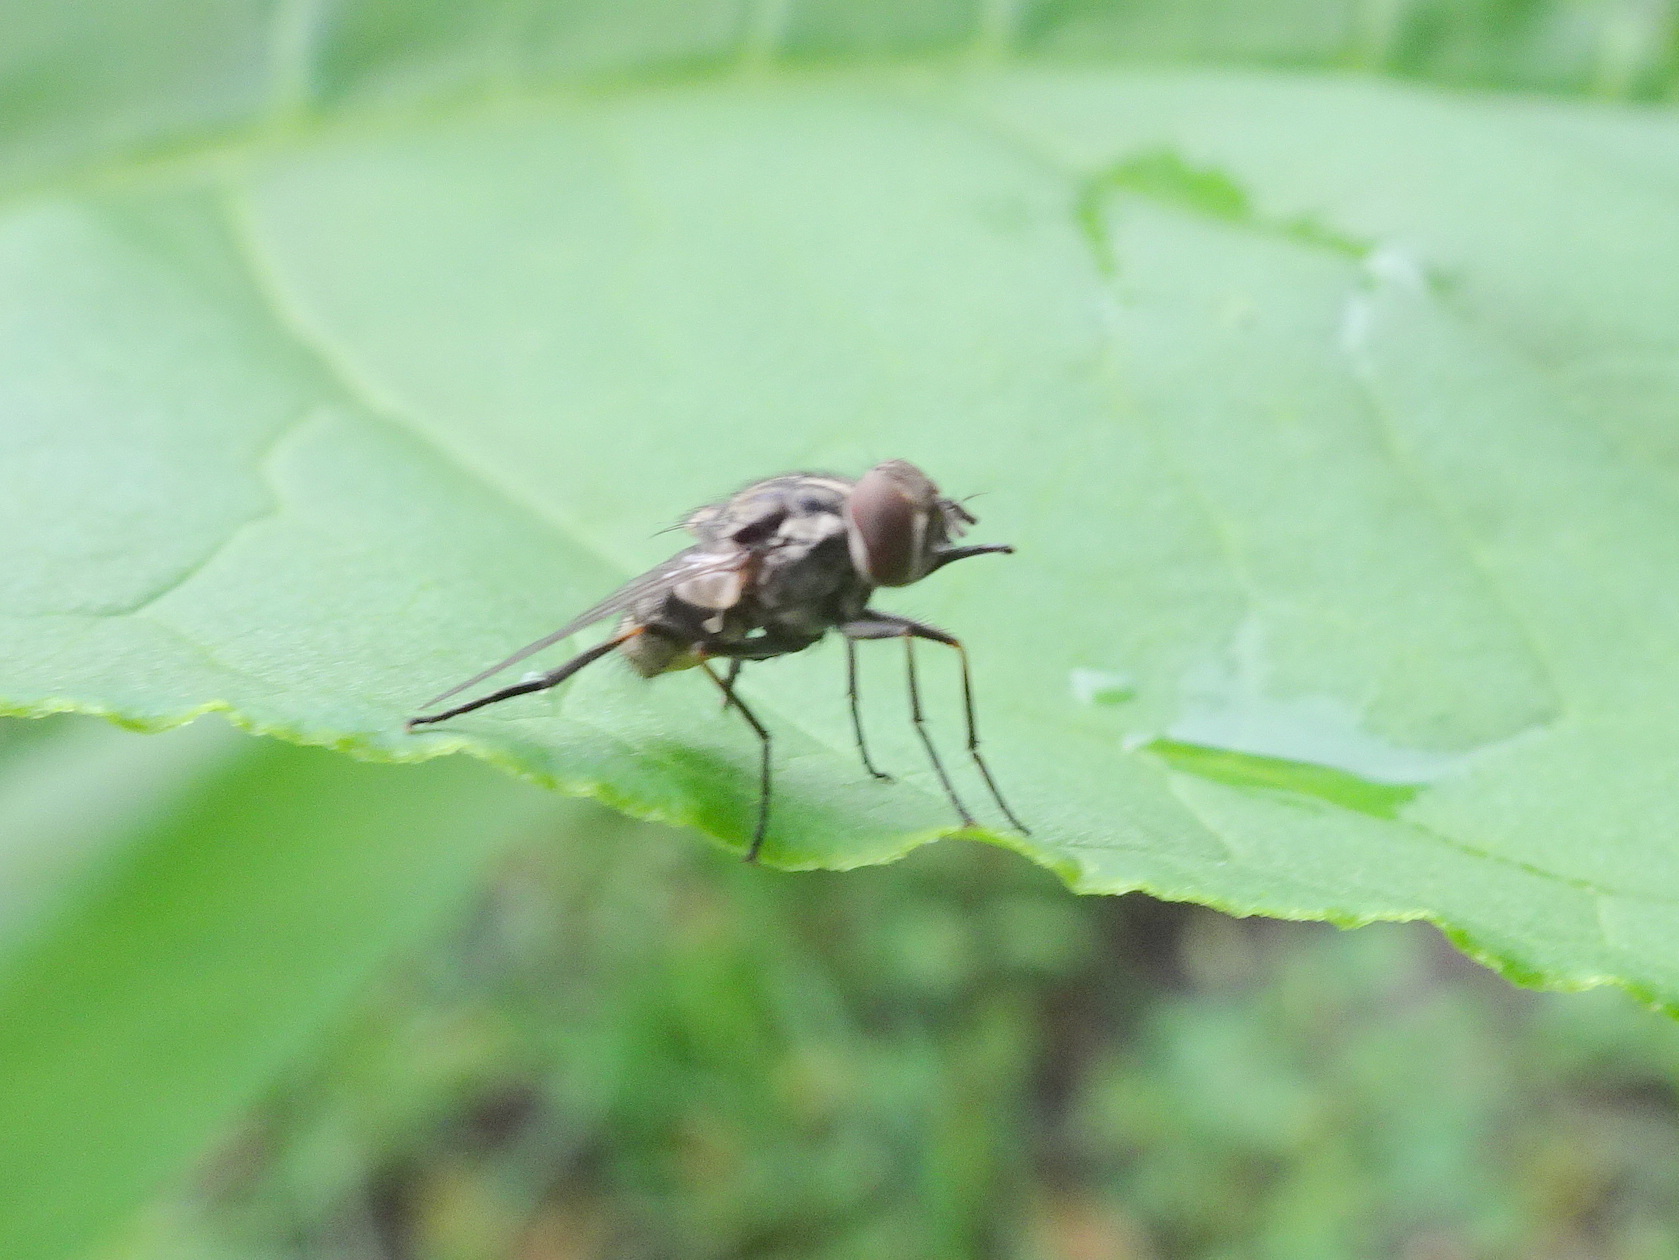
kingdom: Animalia
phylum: Arthropoda
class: Insecta
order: Diptera
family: Muscidae
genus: Stomoxys
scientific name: Stomoxys calcitrans
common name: Stable fly
